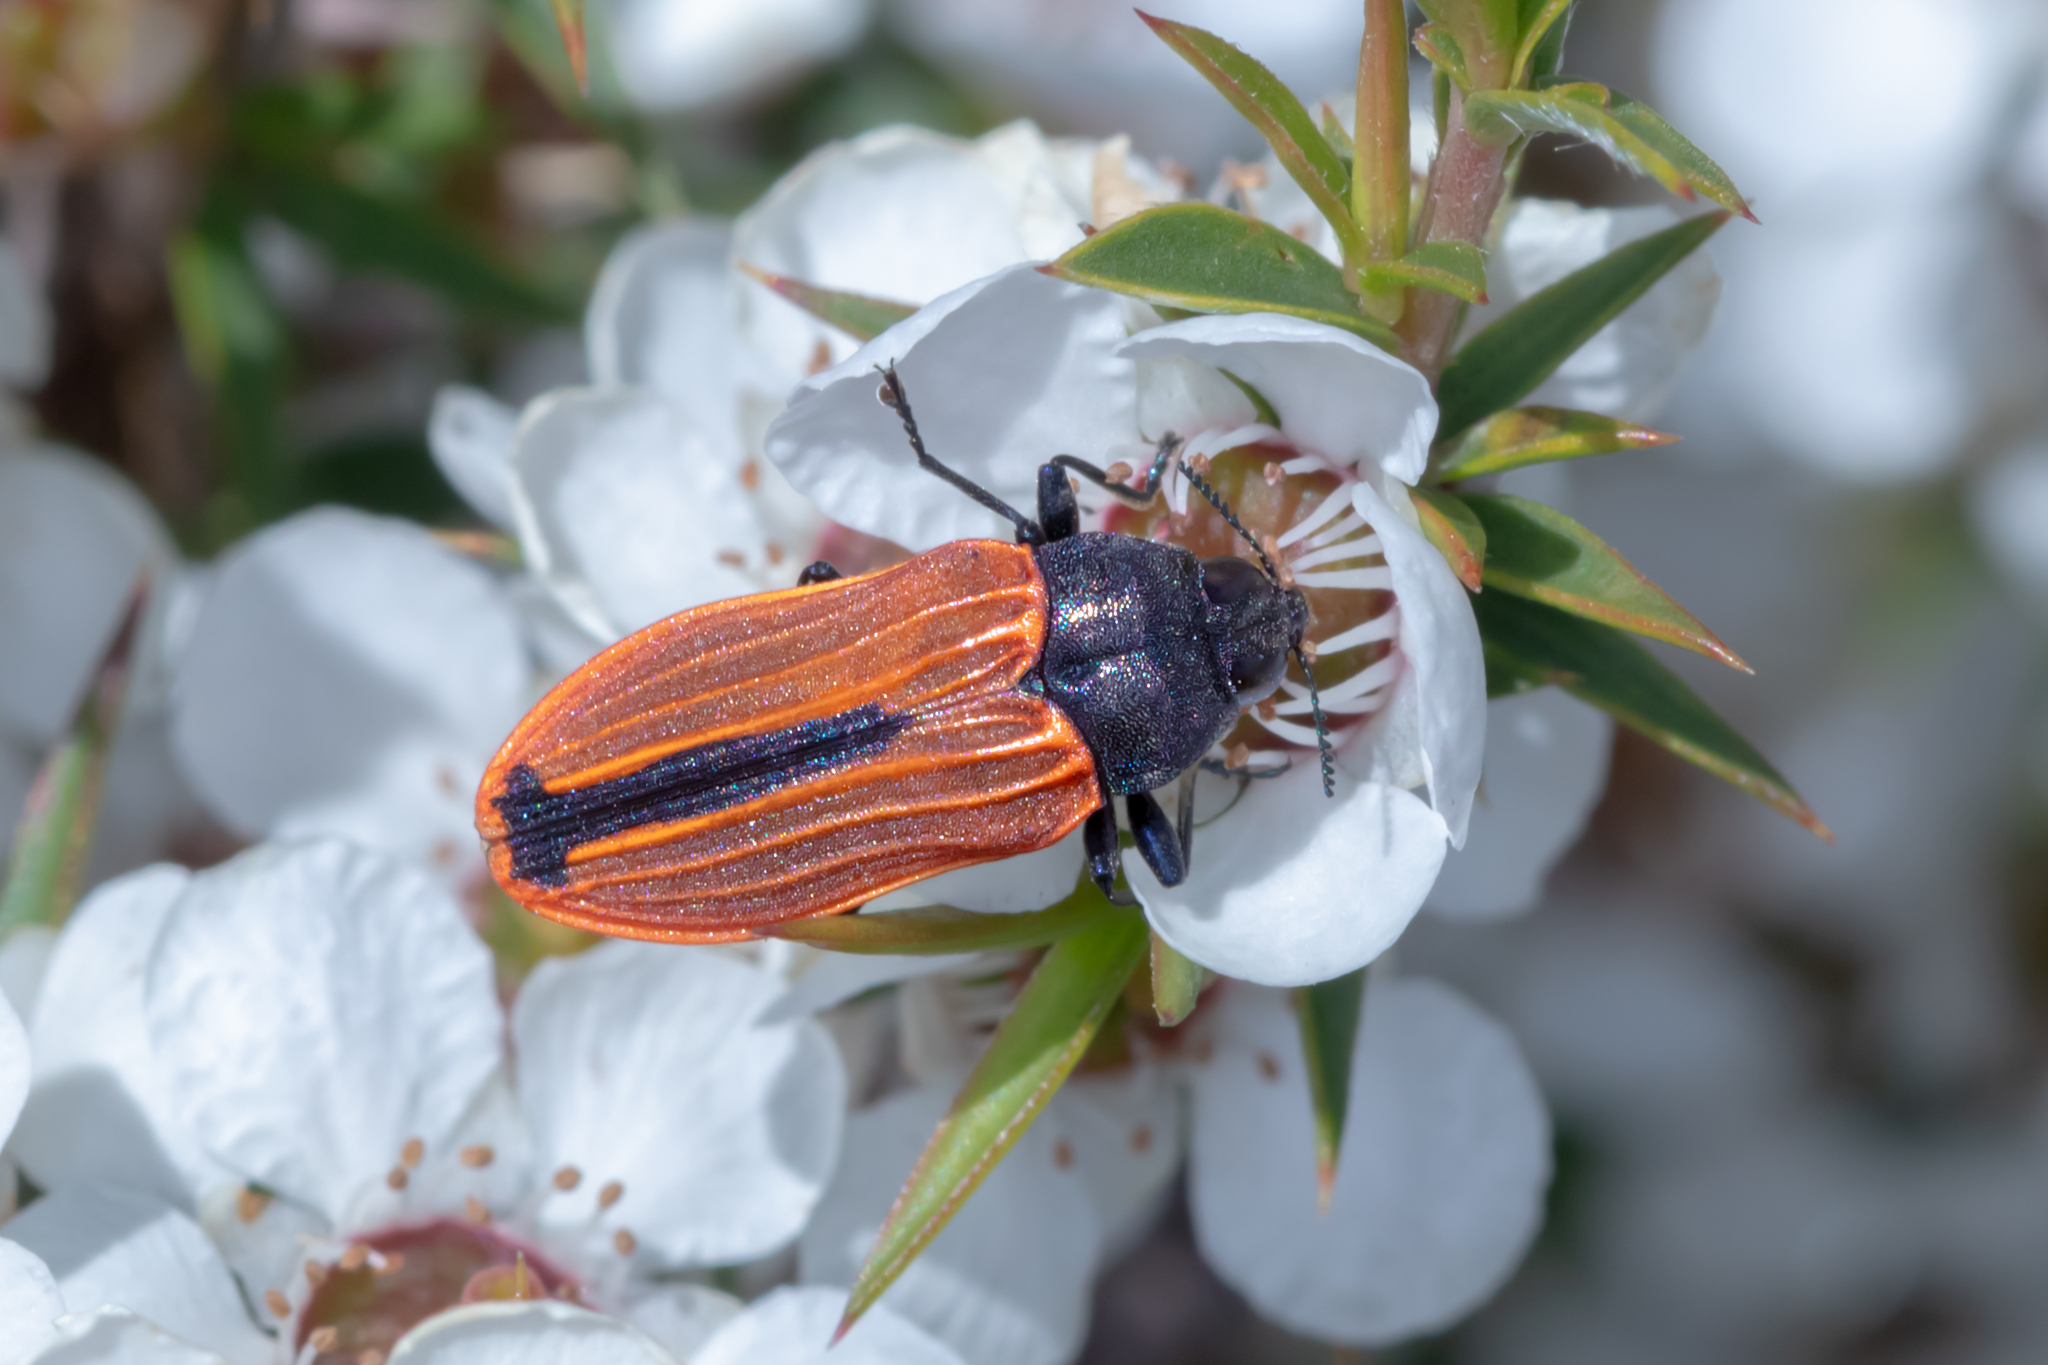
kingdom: Animalia
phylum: Arthropoda
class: Insecta
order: Coleoptera
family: Buprestidae
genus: Castiarina
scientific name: Castiarina erythroptera
